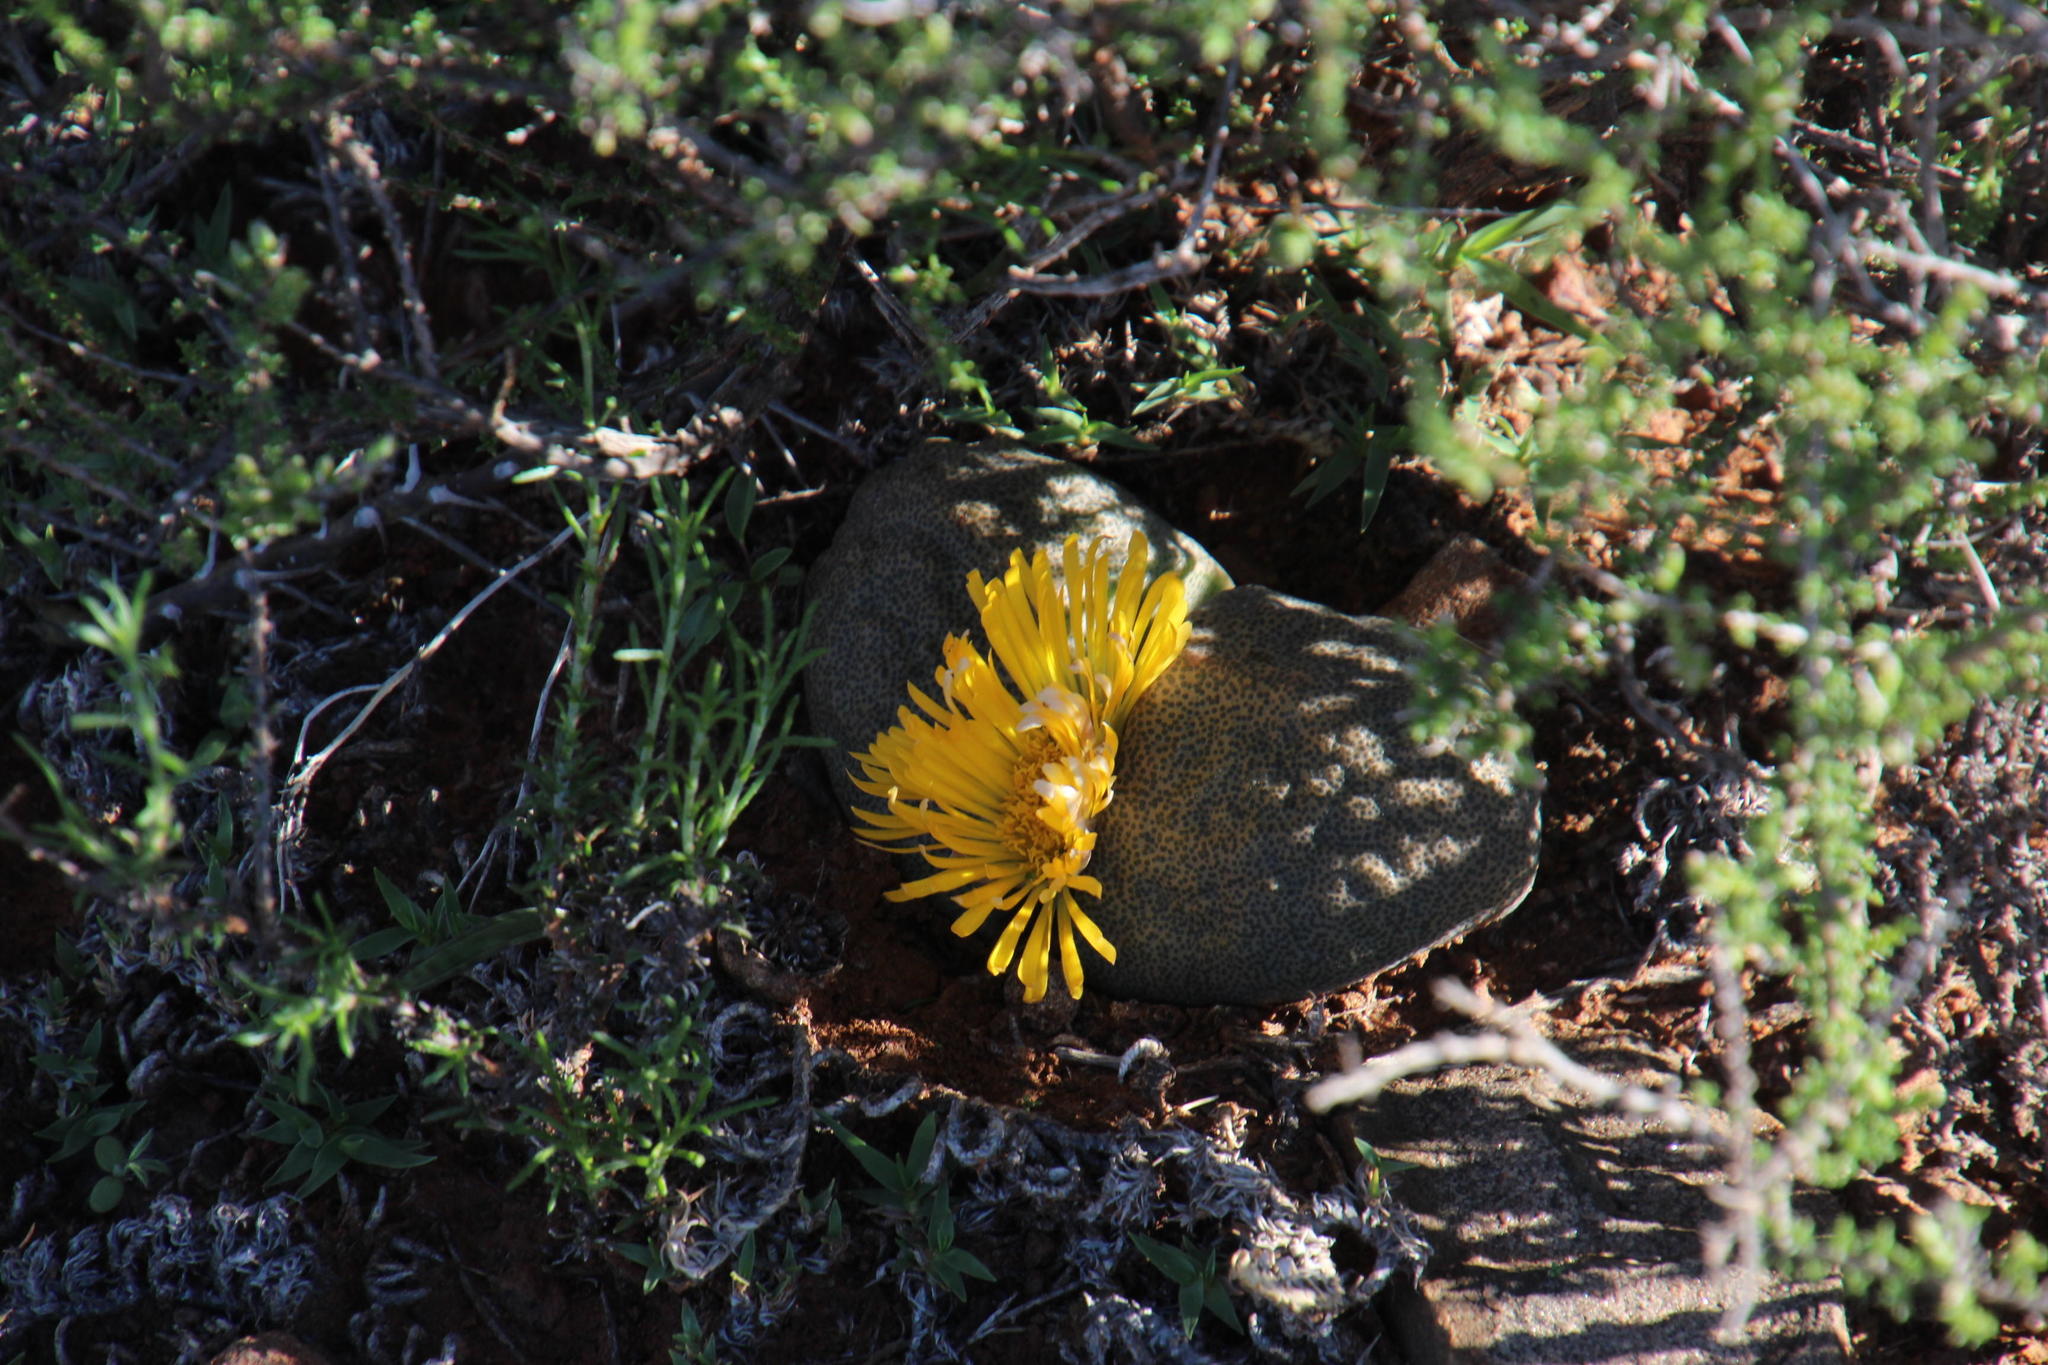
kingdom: Plantae
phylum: Tracheophyta
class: Magnoliopsida
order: Caryophyllales
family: Aizoaceae
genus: Pleiospilos
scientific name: Pleiospilos bolusii
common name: African living-rock
